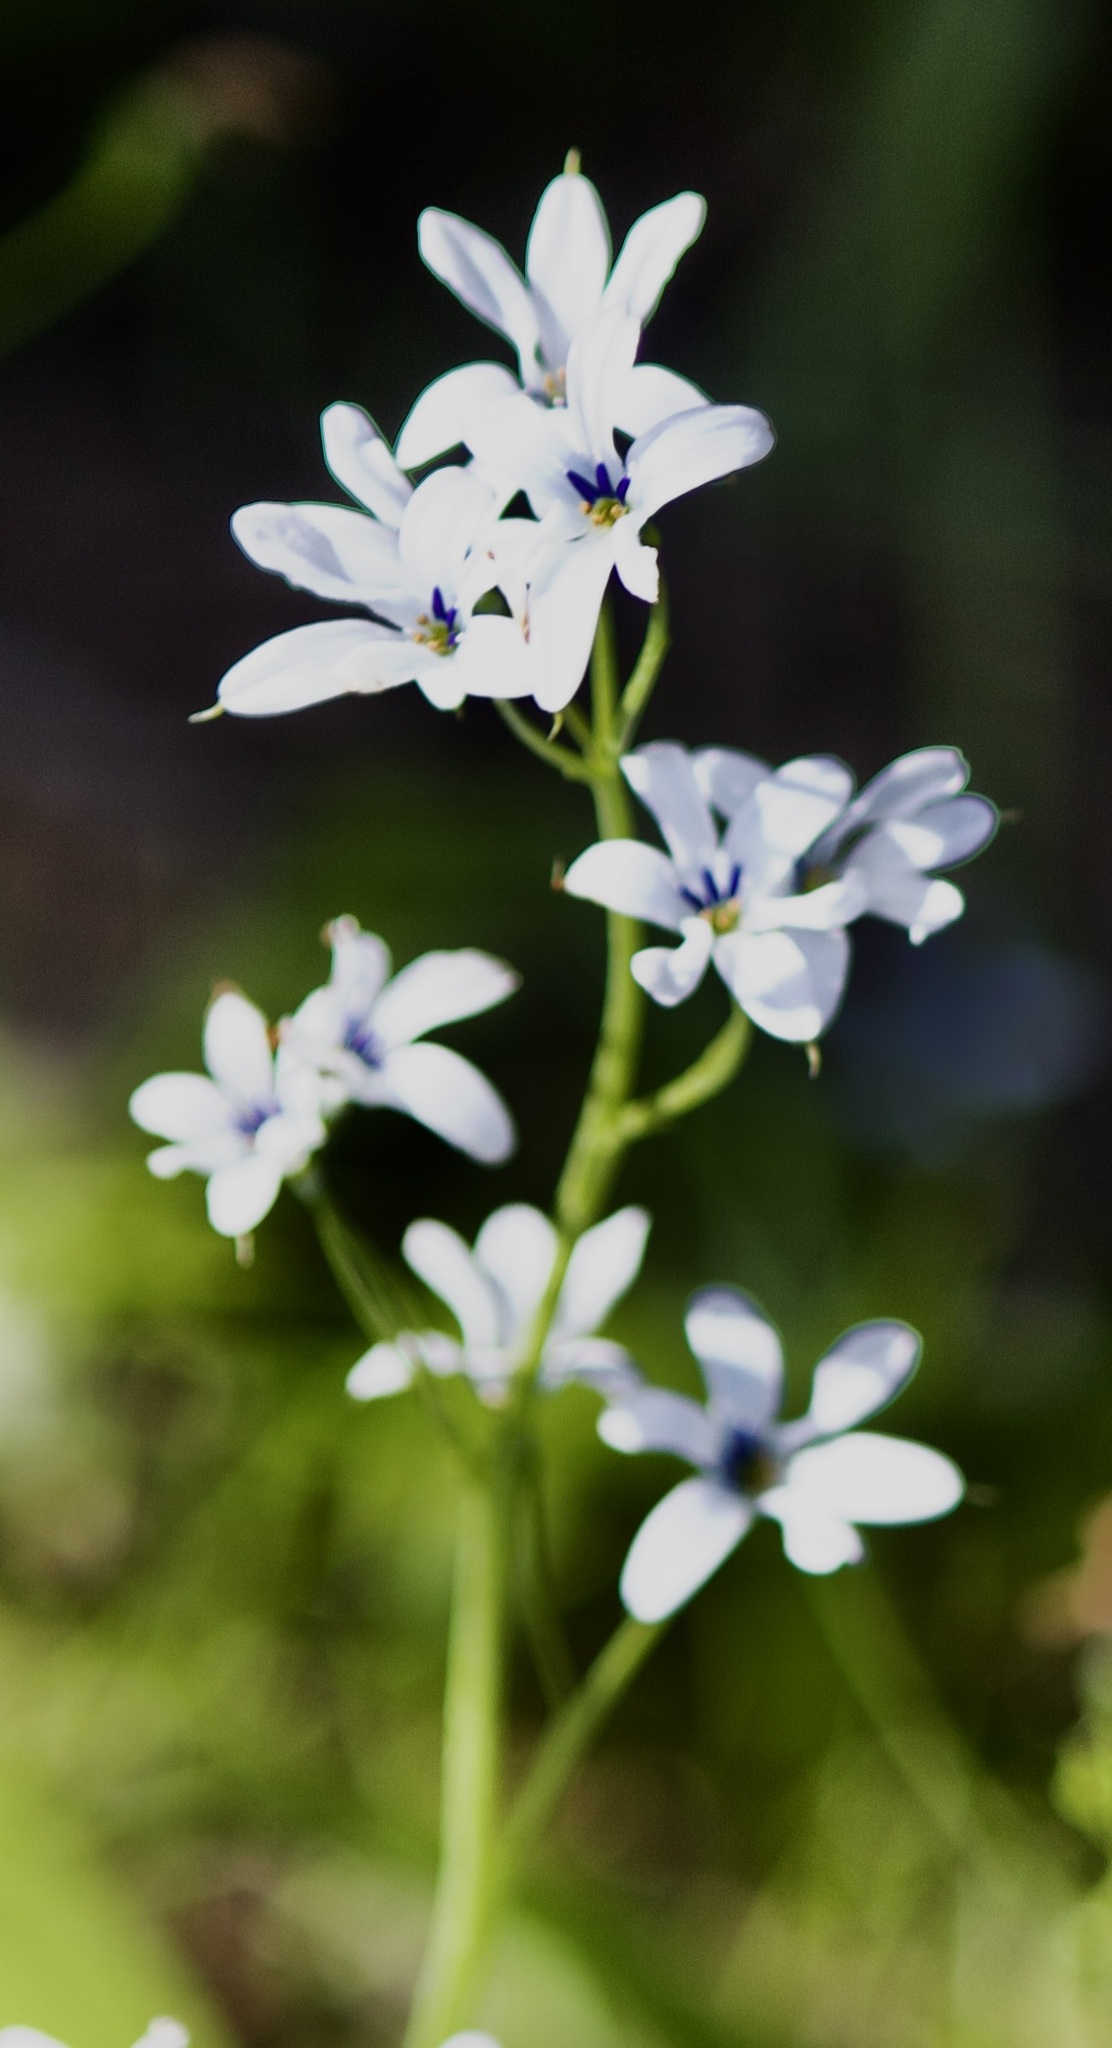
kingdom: Plantae
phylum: Tracheophyta
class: Liliopsida
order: Asparagales
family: Tecophilaeaceae
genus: Tecophilaea
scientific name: Tecophilaea violiflora
